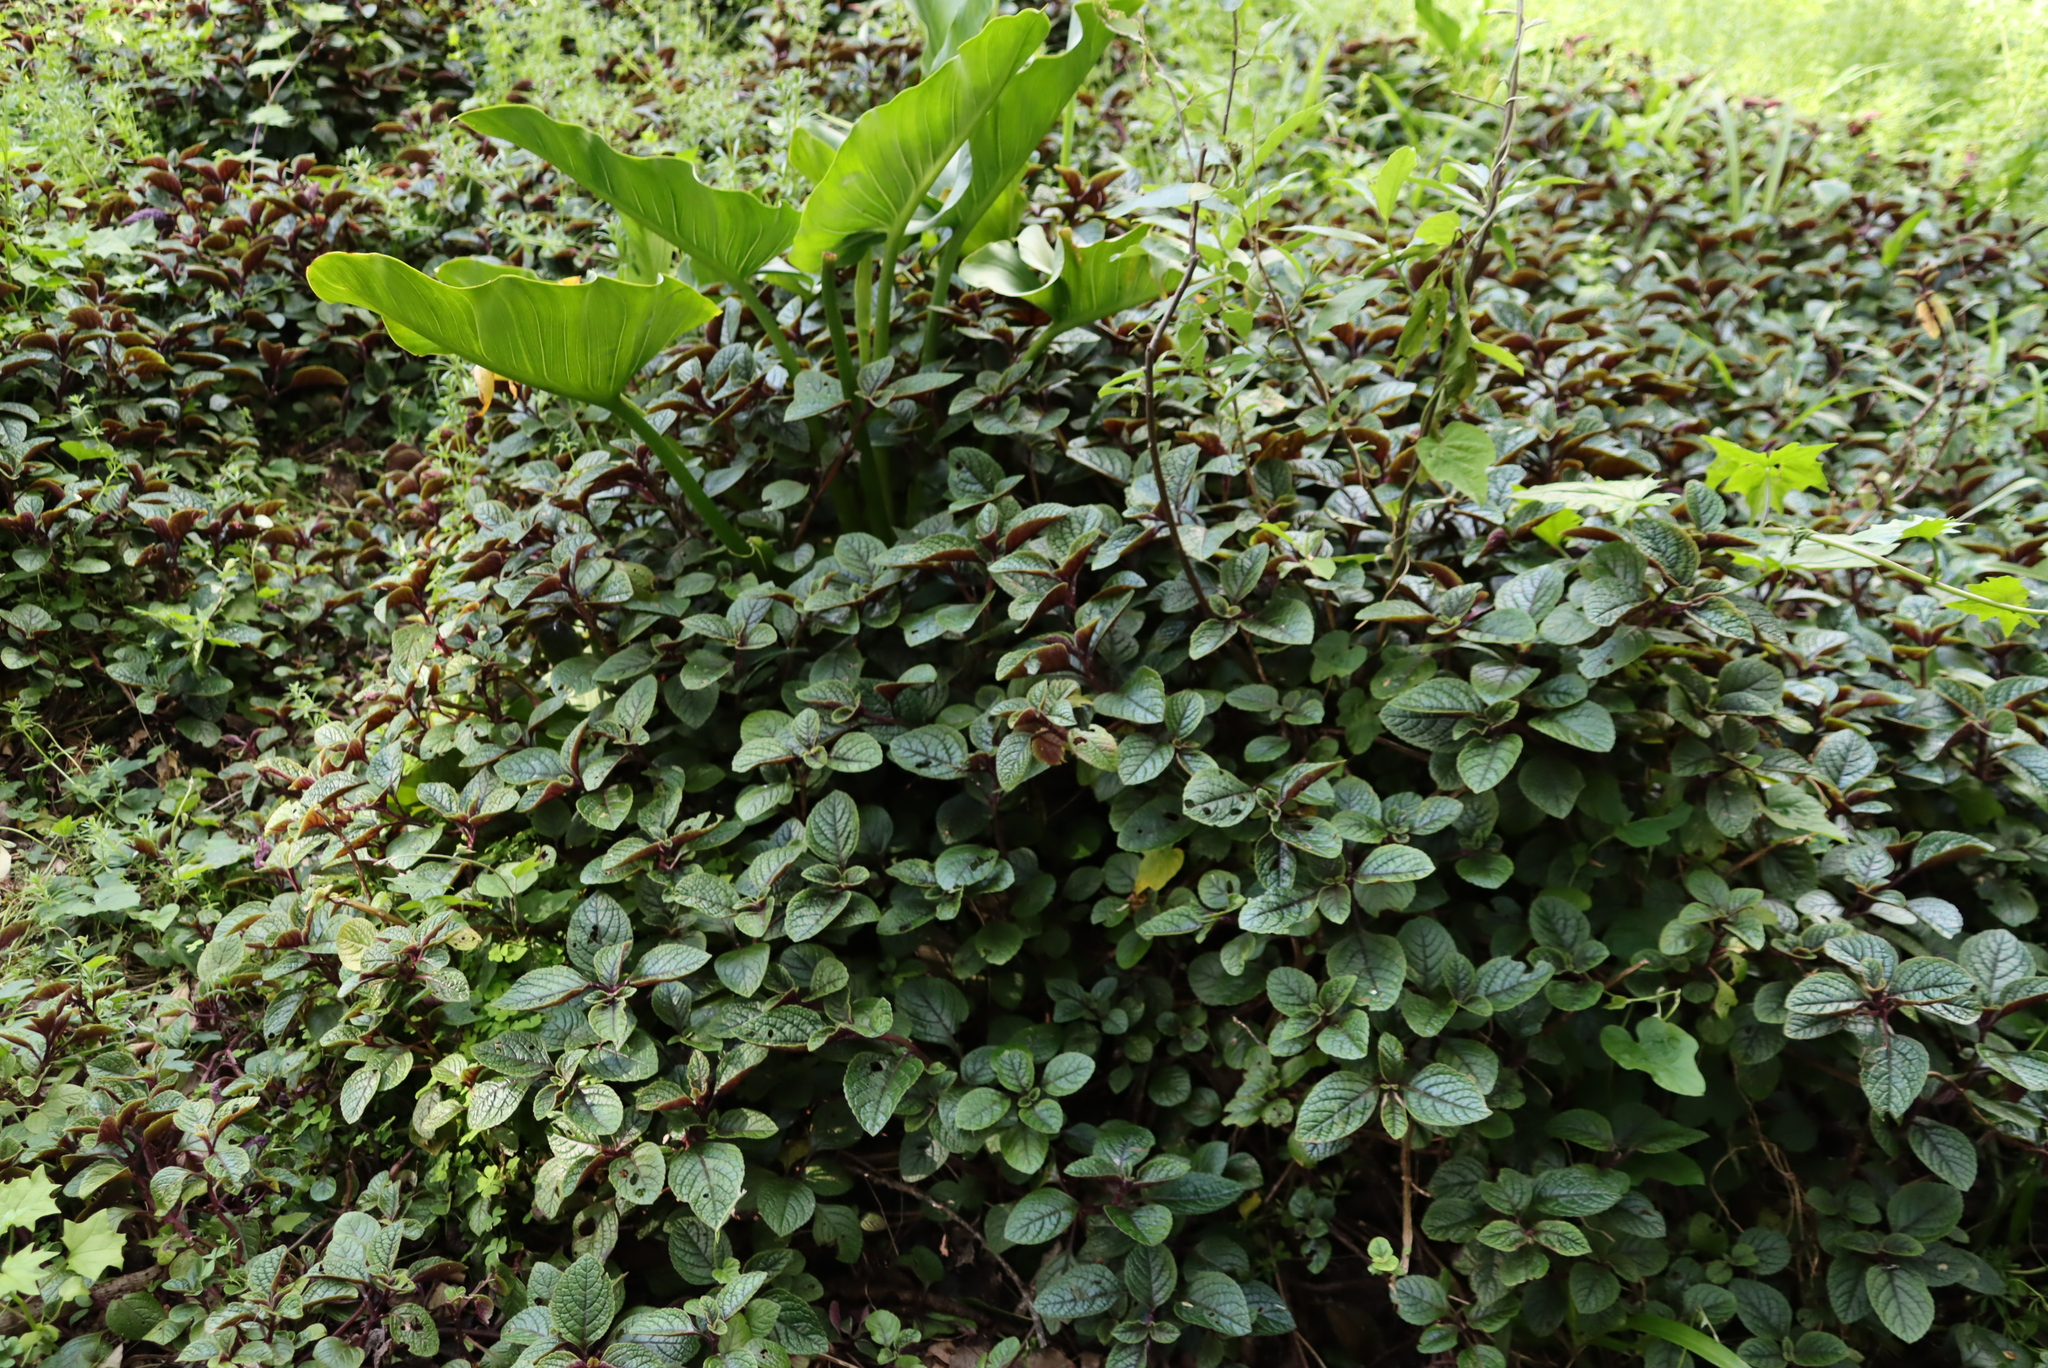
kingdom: Plantae
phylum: Tracheophyta
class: Magnoliopsida
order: Lamiales
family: Lamiaceae
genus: Plectranthus
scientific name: Plectranthus ciliatus
